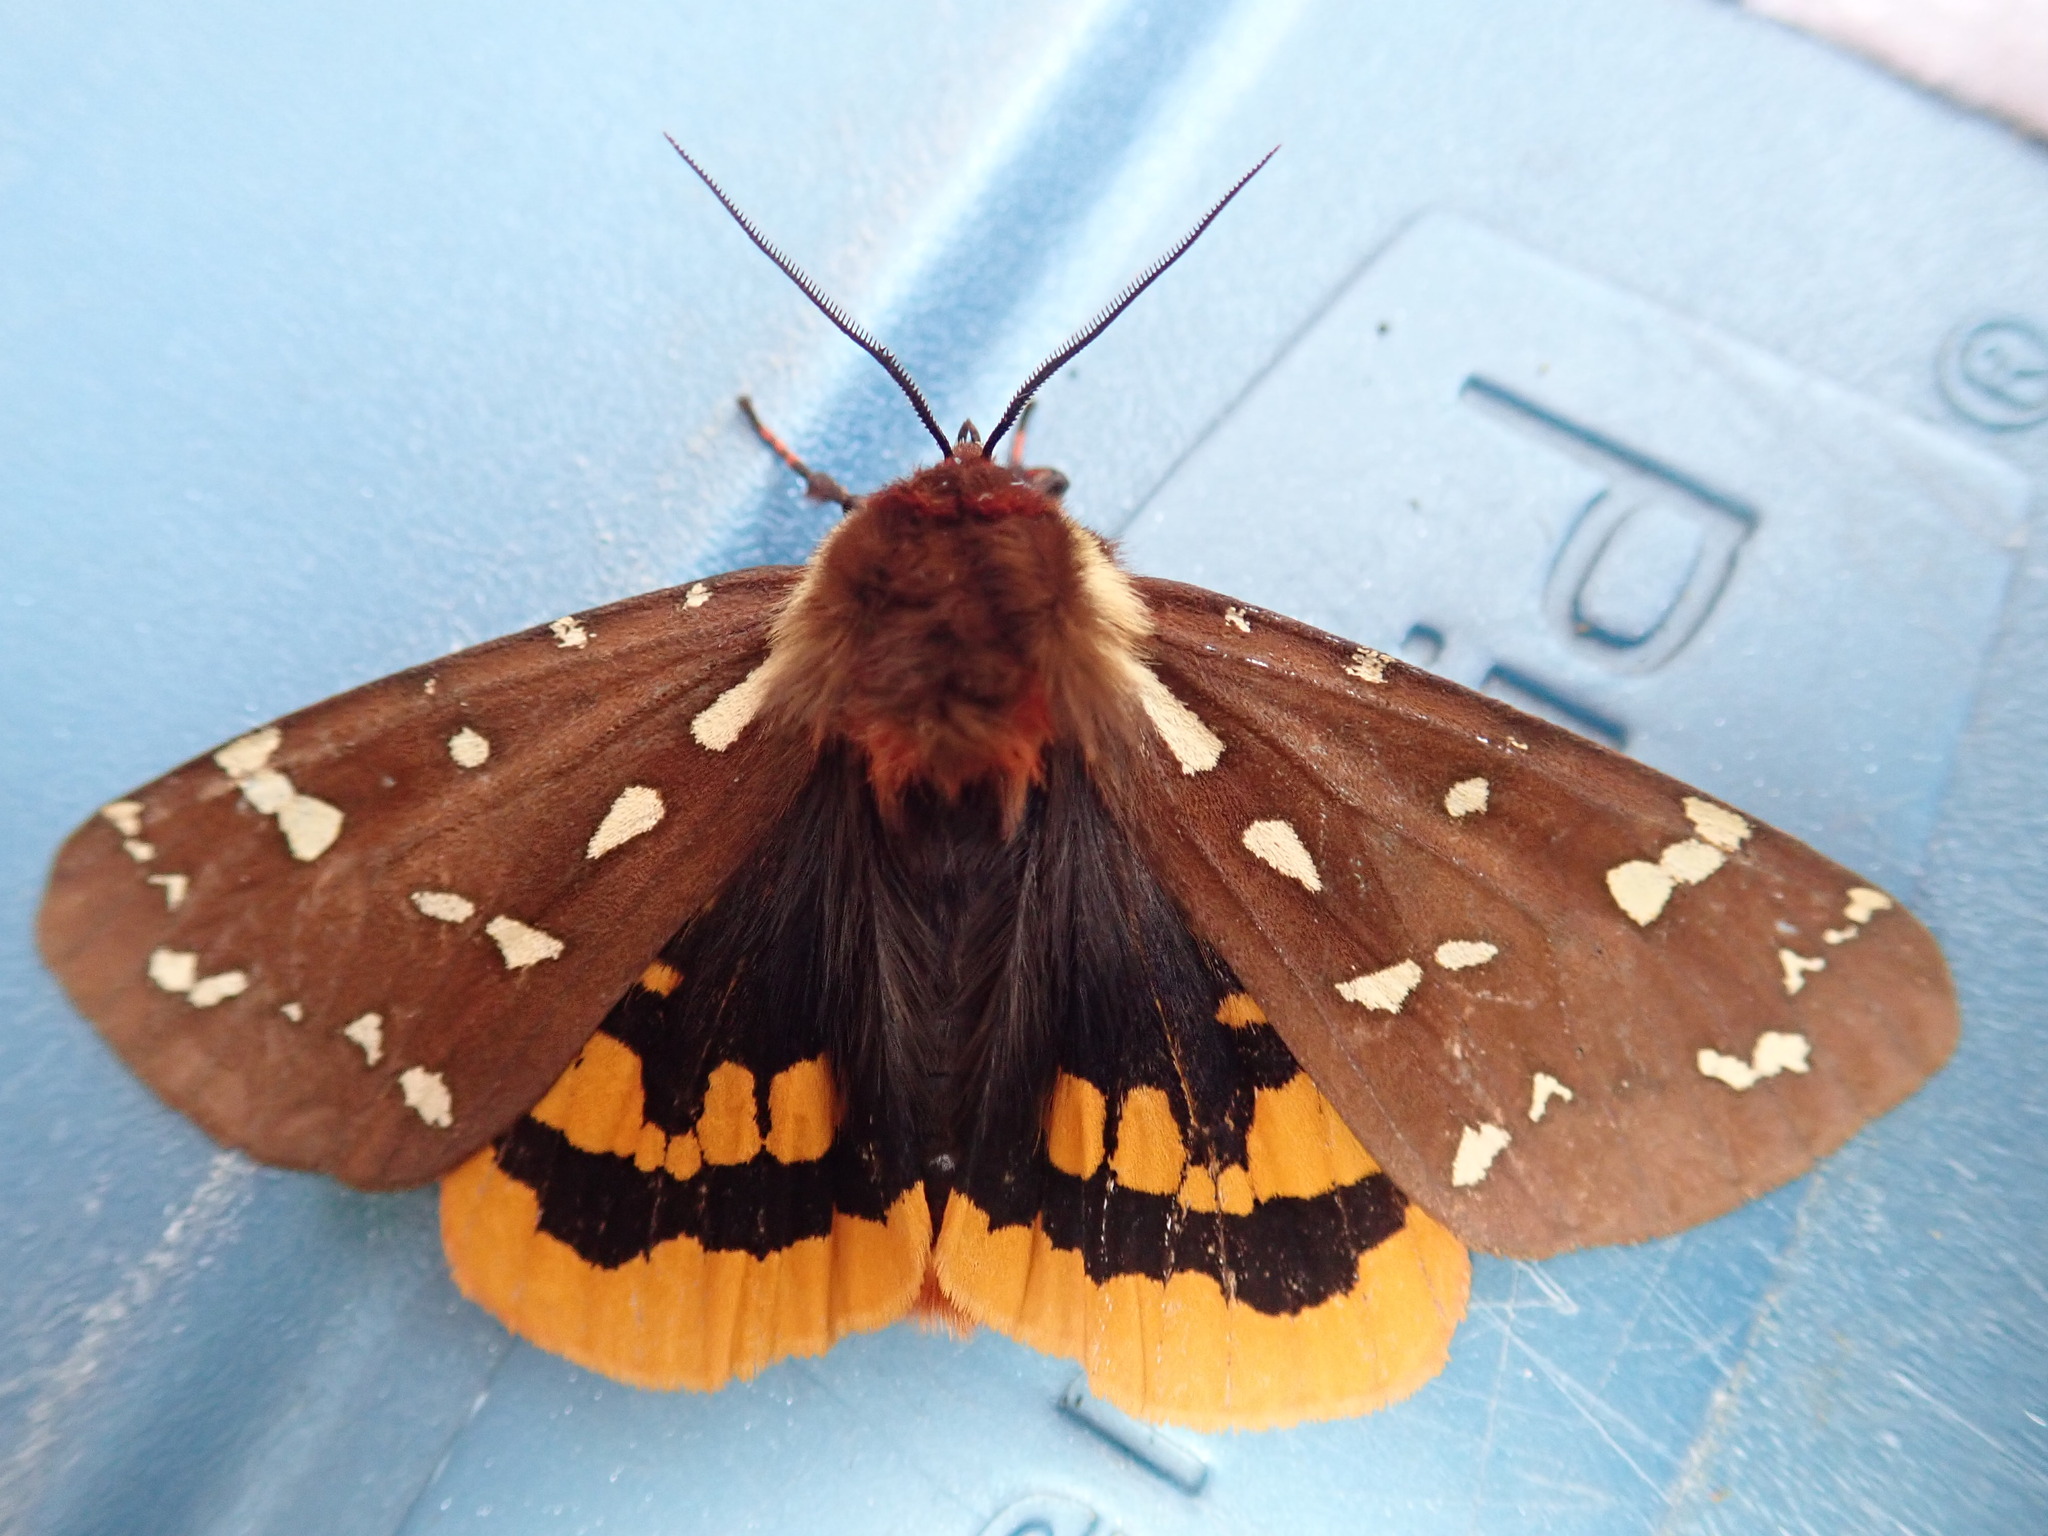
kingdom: Animalia
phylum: Arthropoda
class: Insecta
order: Lepidoptera
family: Erebidae
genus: Arctia
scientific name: Arctia parthenos
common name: St. lawrence tiger moth
